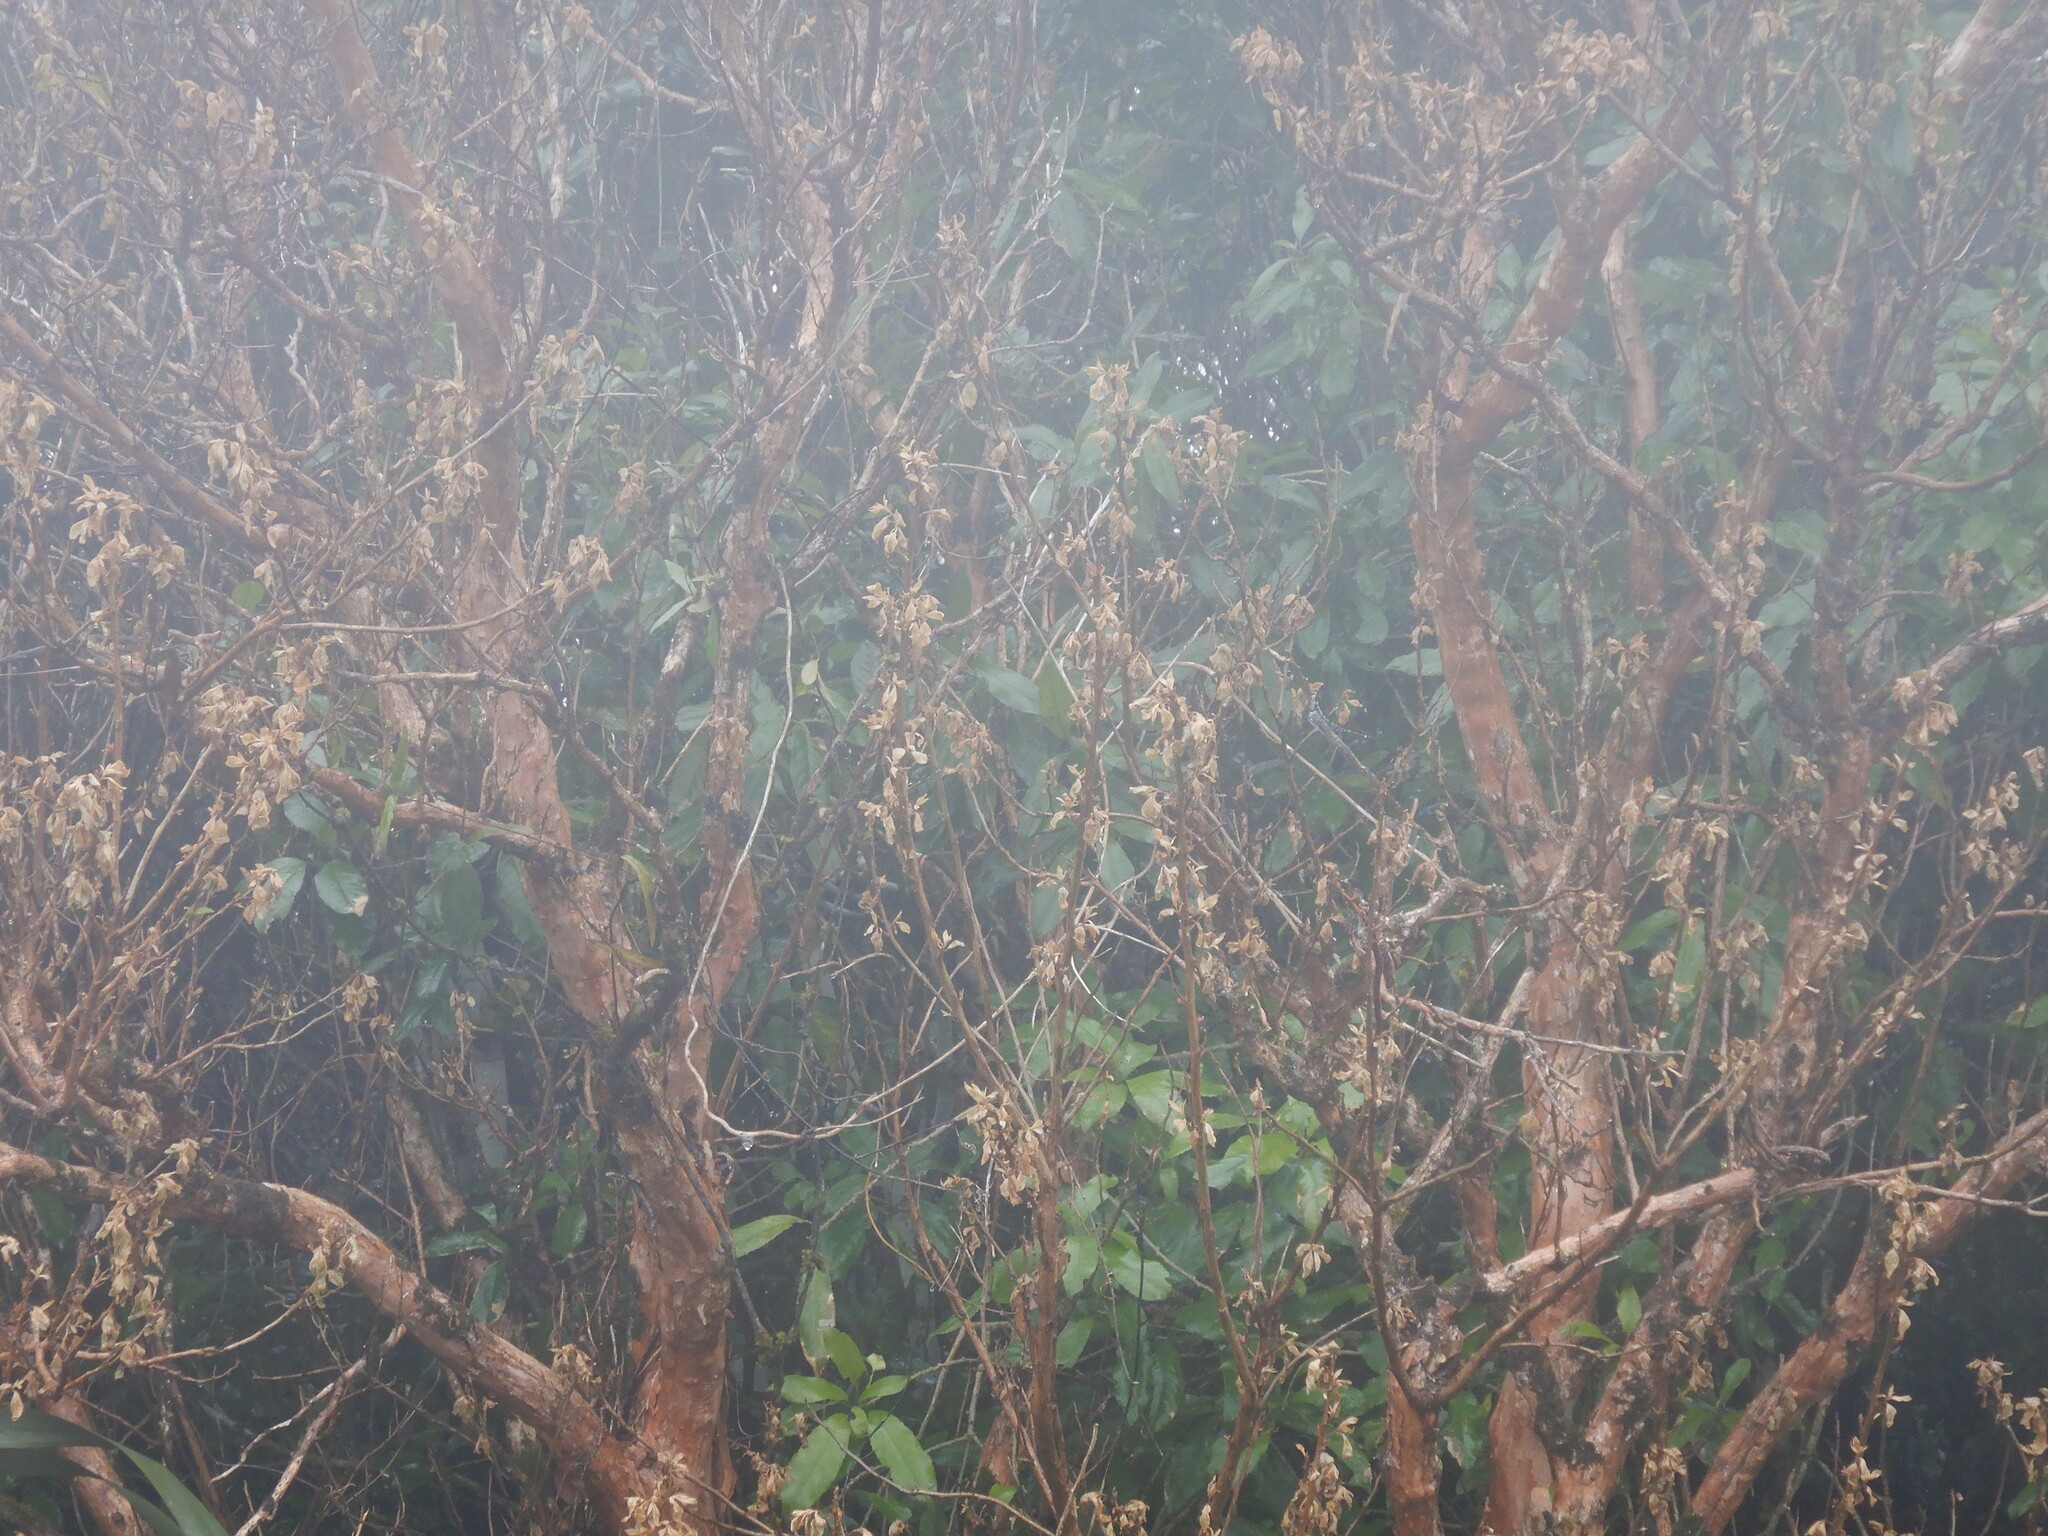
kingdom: Plantae
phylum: Tracheophyta
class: Magnoliopsida
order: Myrtales
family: Onagraceae
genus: Fuchsia
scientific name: Fuchsia excorticata
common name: Tree fuchsia
